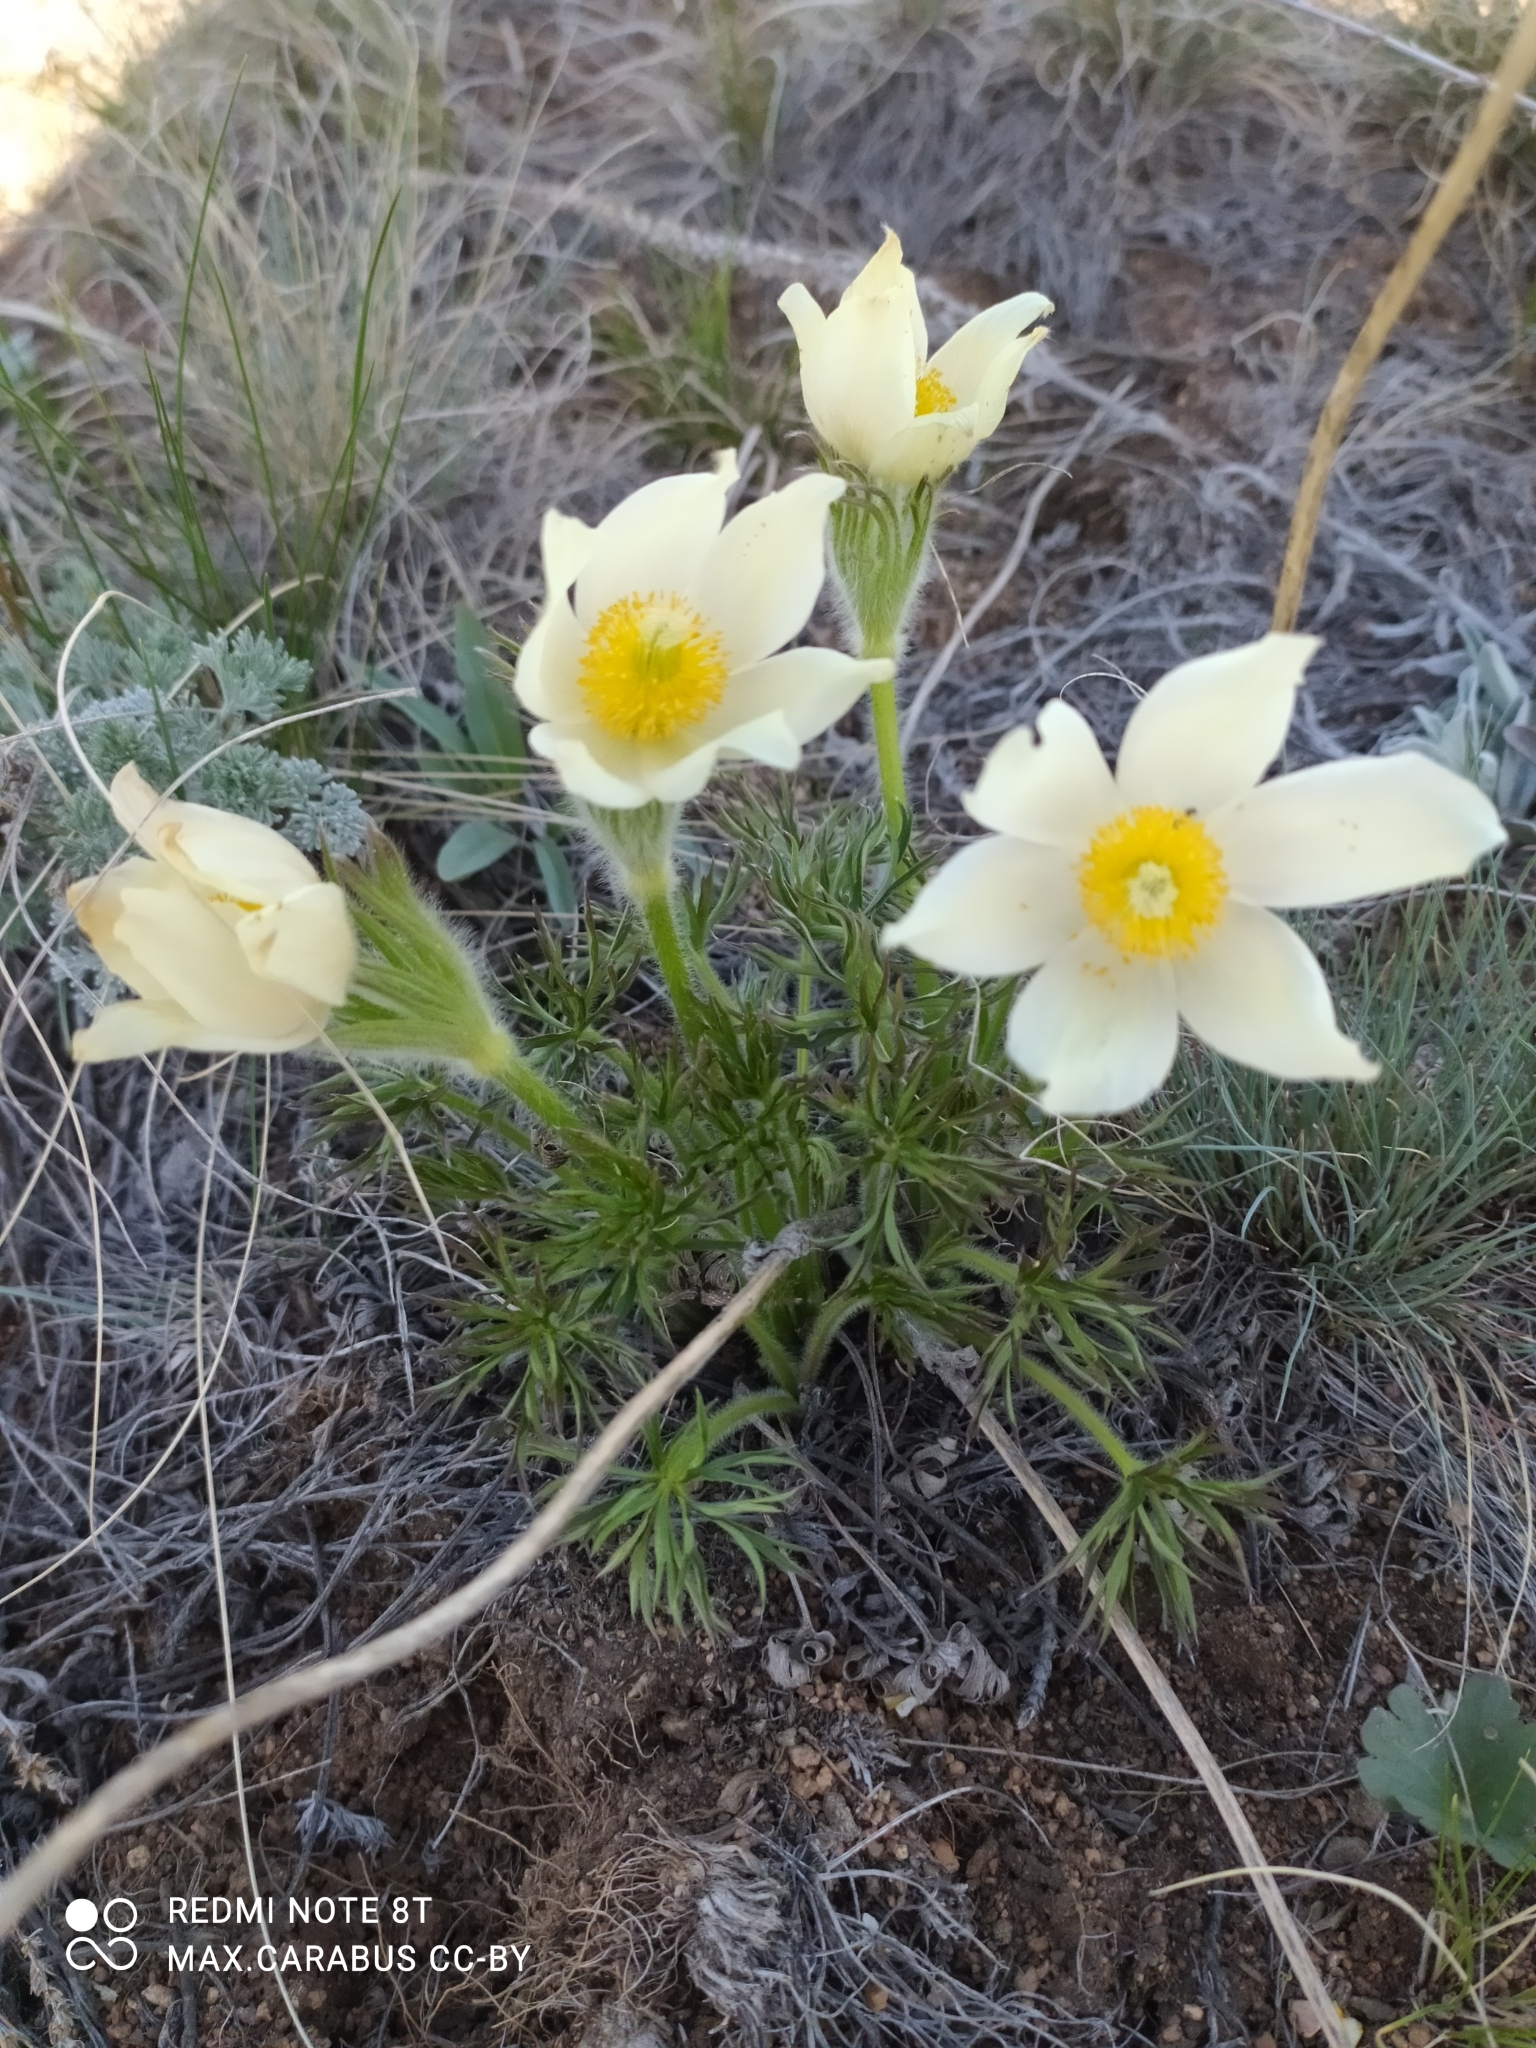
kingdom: Plantae
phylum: Tracheophyta
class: Magnoliopsida
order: Ranunculales
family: Ranunculaceae
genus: Pulsatilla
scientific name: Pulsatilla patens
